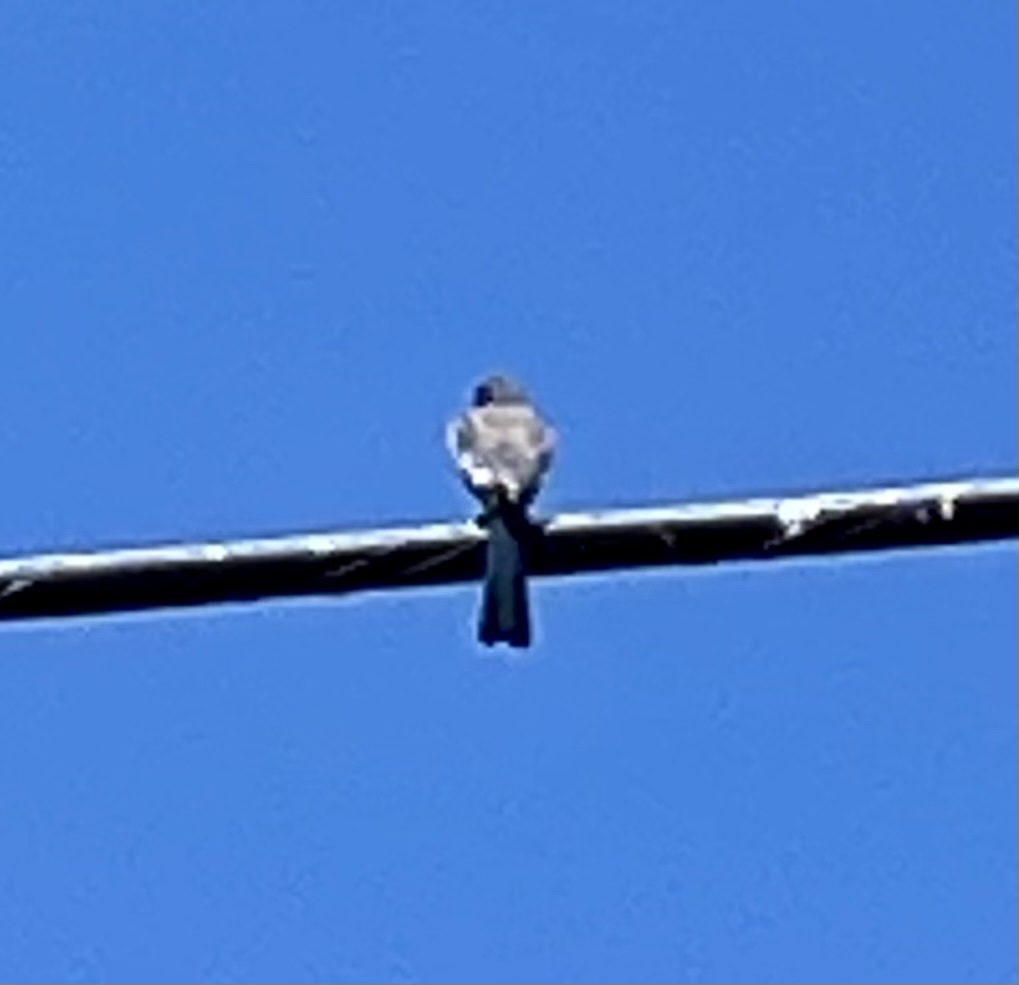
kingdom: Animalia
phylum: Chordata
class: Aves
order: Passeriformes
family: Corvidae
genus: Aphelocoma
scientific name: Aphelocoma californica
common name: California scrub-jay
